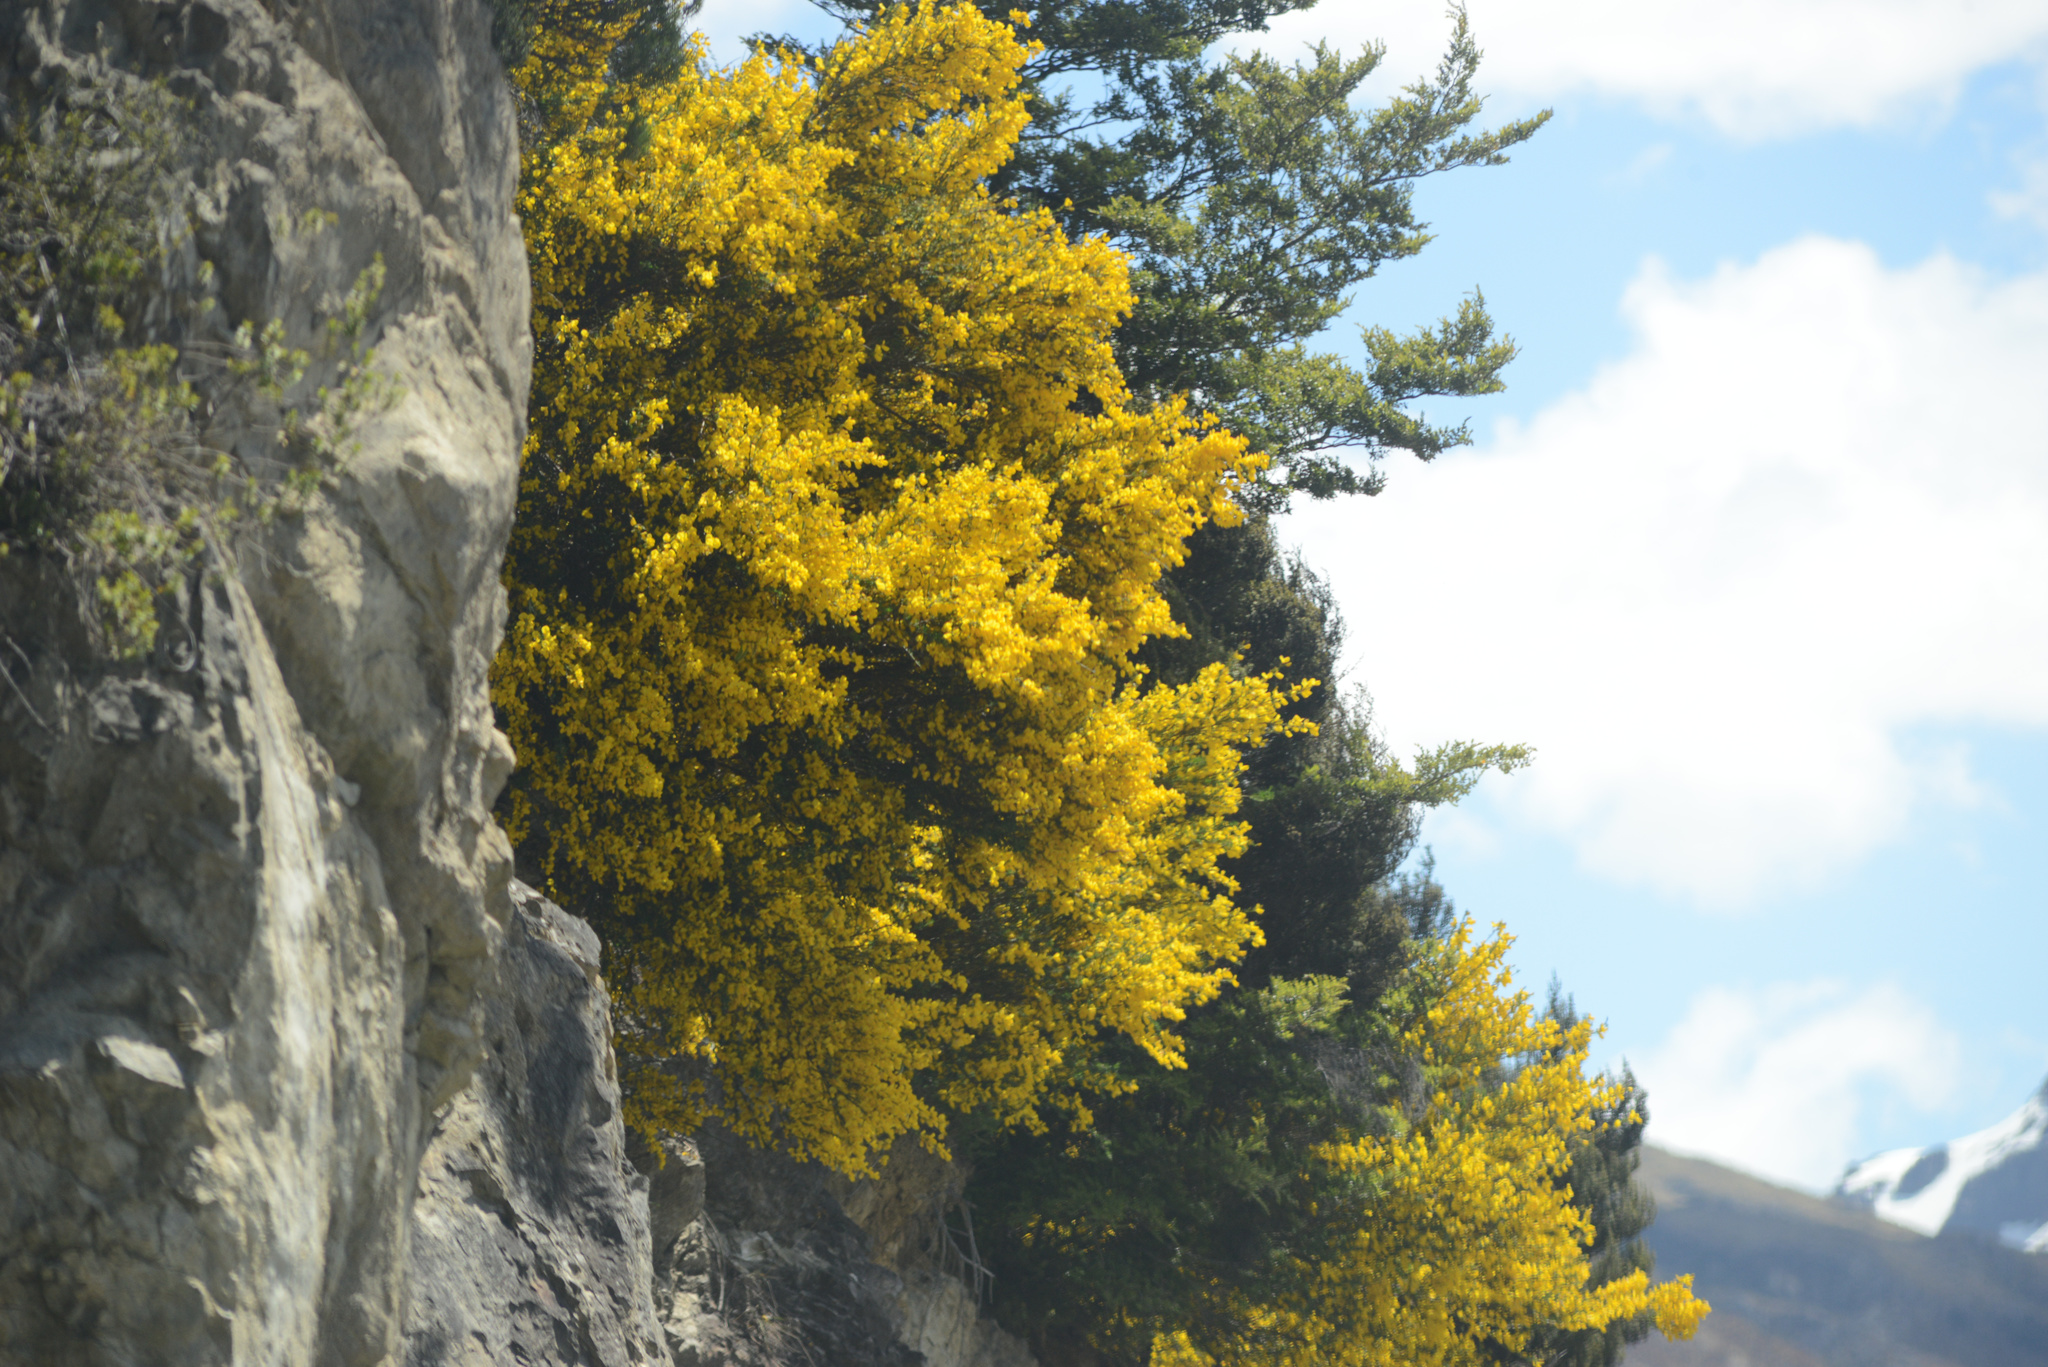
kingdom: Plantae
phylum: Tracheophyta
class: Magnoliopsida
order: Fabales
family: Fabaceae
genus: Cytisus
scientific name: Cytisus scoparius
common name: Scotch broom
